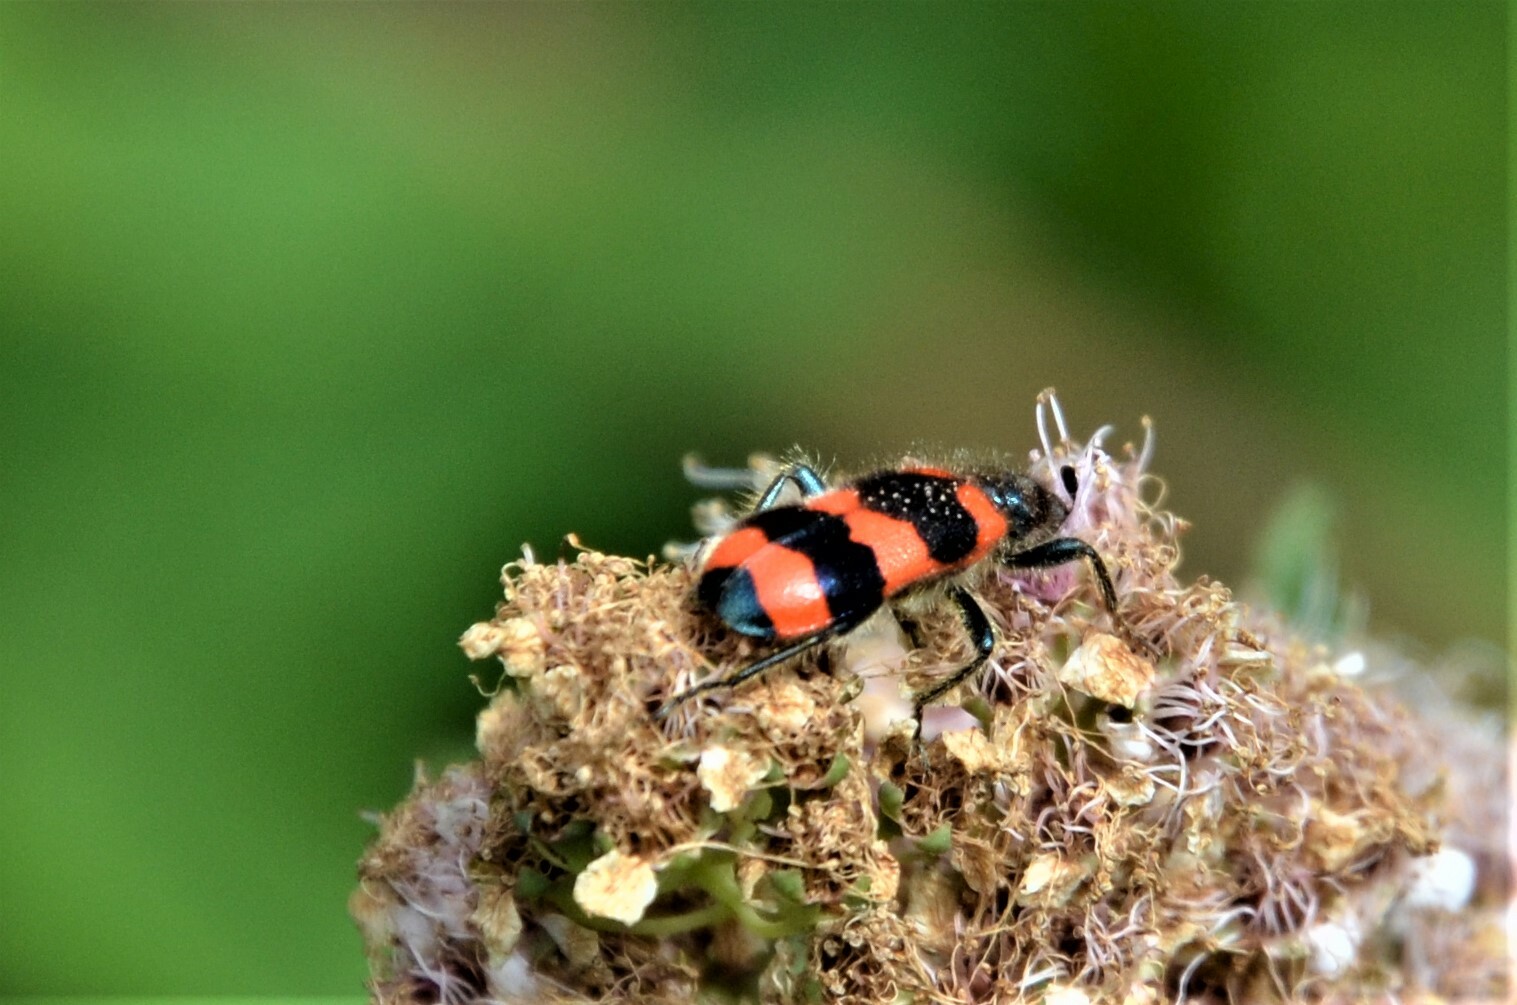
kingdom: Animalia
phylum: Arthropoda
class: Insecta
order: Coleoptera
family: Cleridae
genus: Trichodes
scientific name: Trichodes apiarius
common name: Bee-eating beetle
